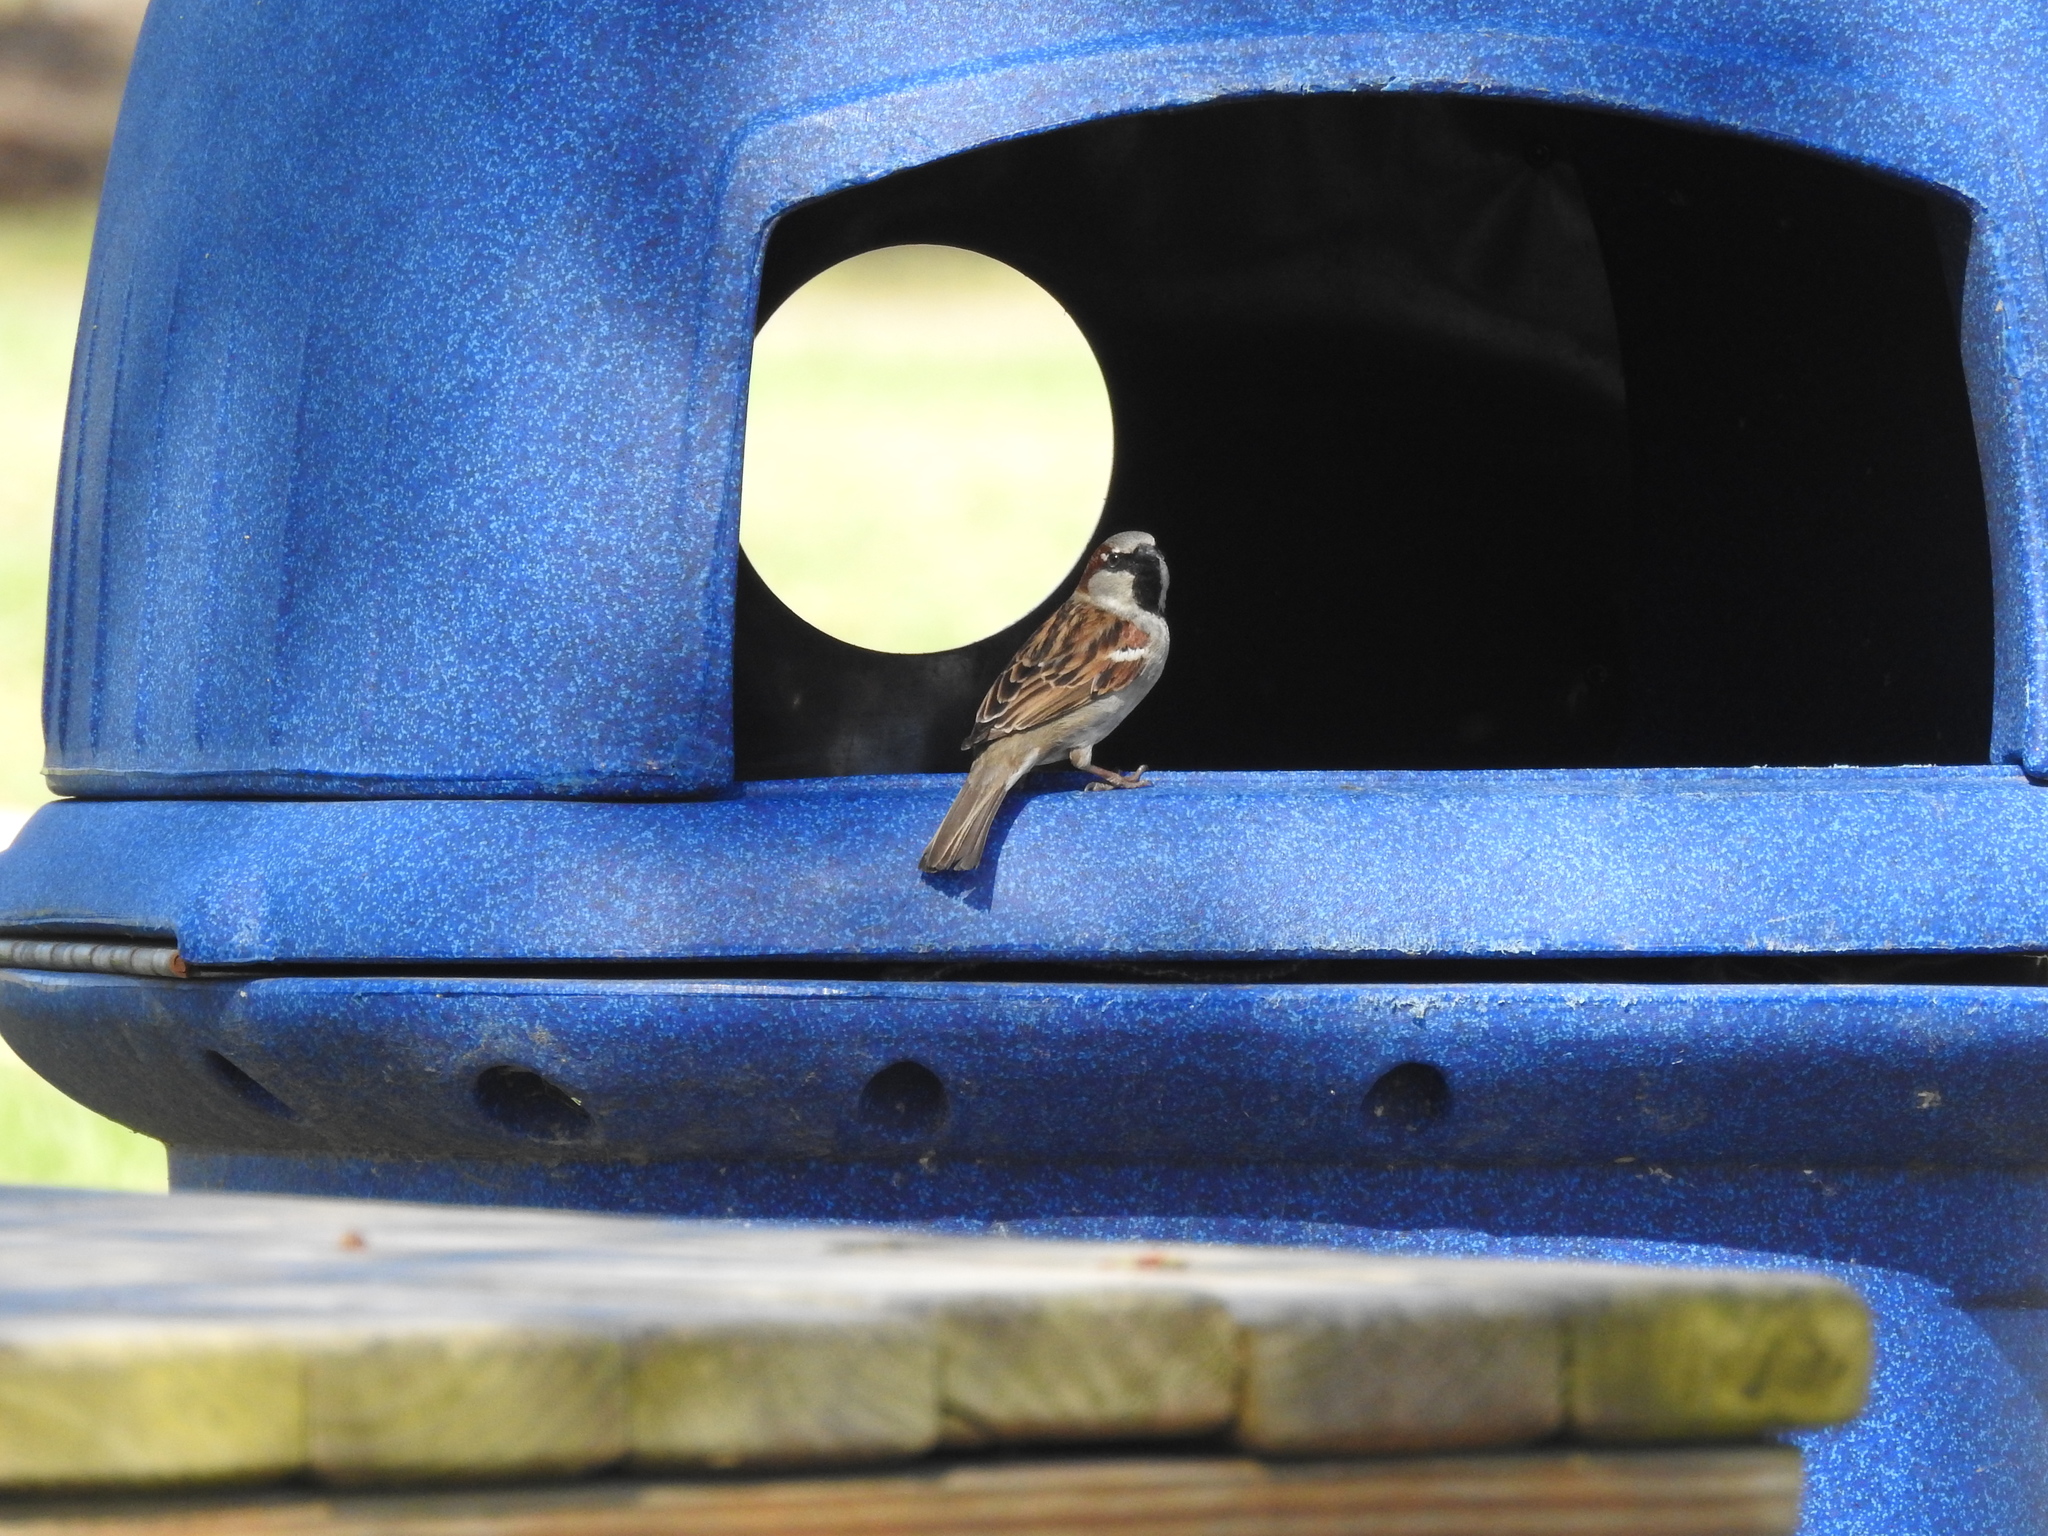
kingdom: Animalia
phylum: Chordata
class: Aves
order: Passeriformes
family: Passeridae
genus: Passer
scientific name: Passer domesticus
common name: House sparrow
